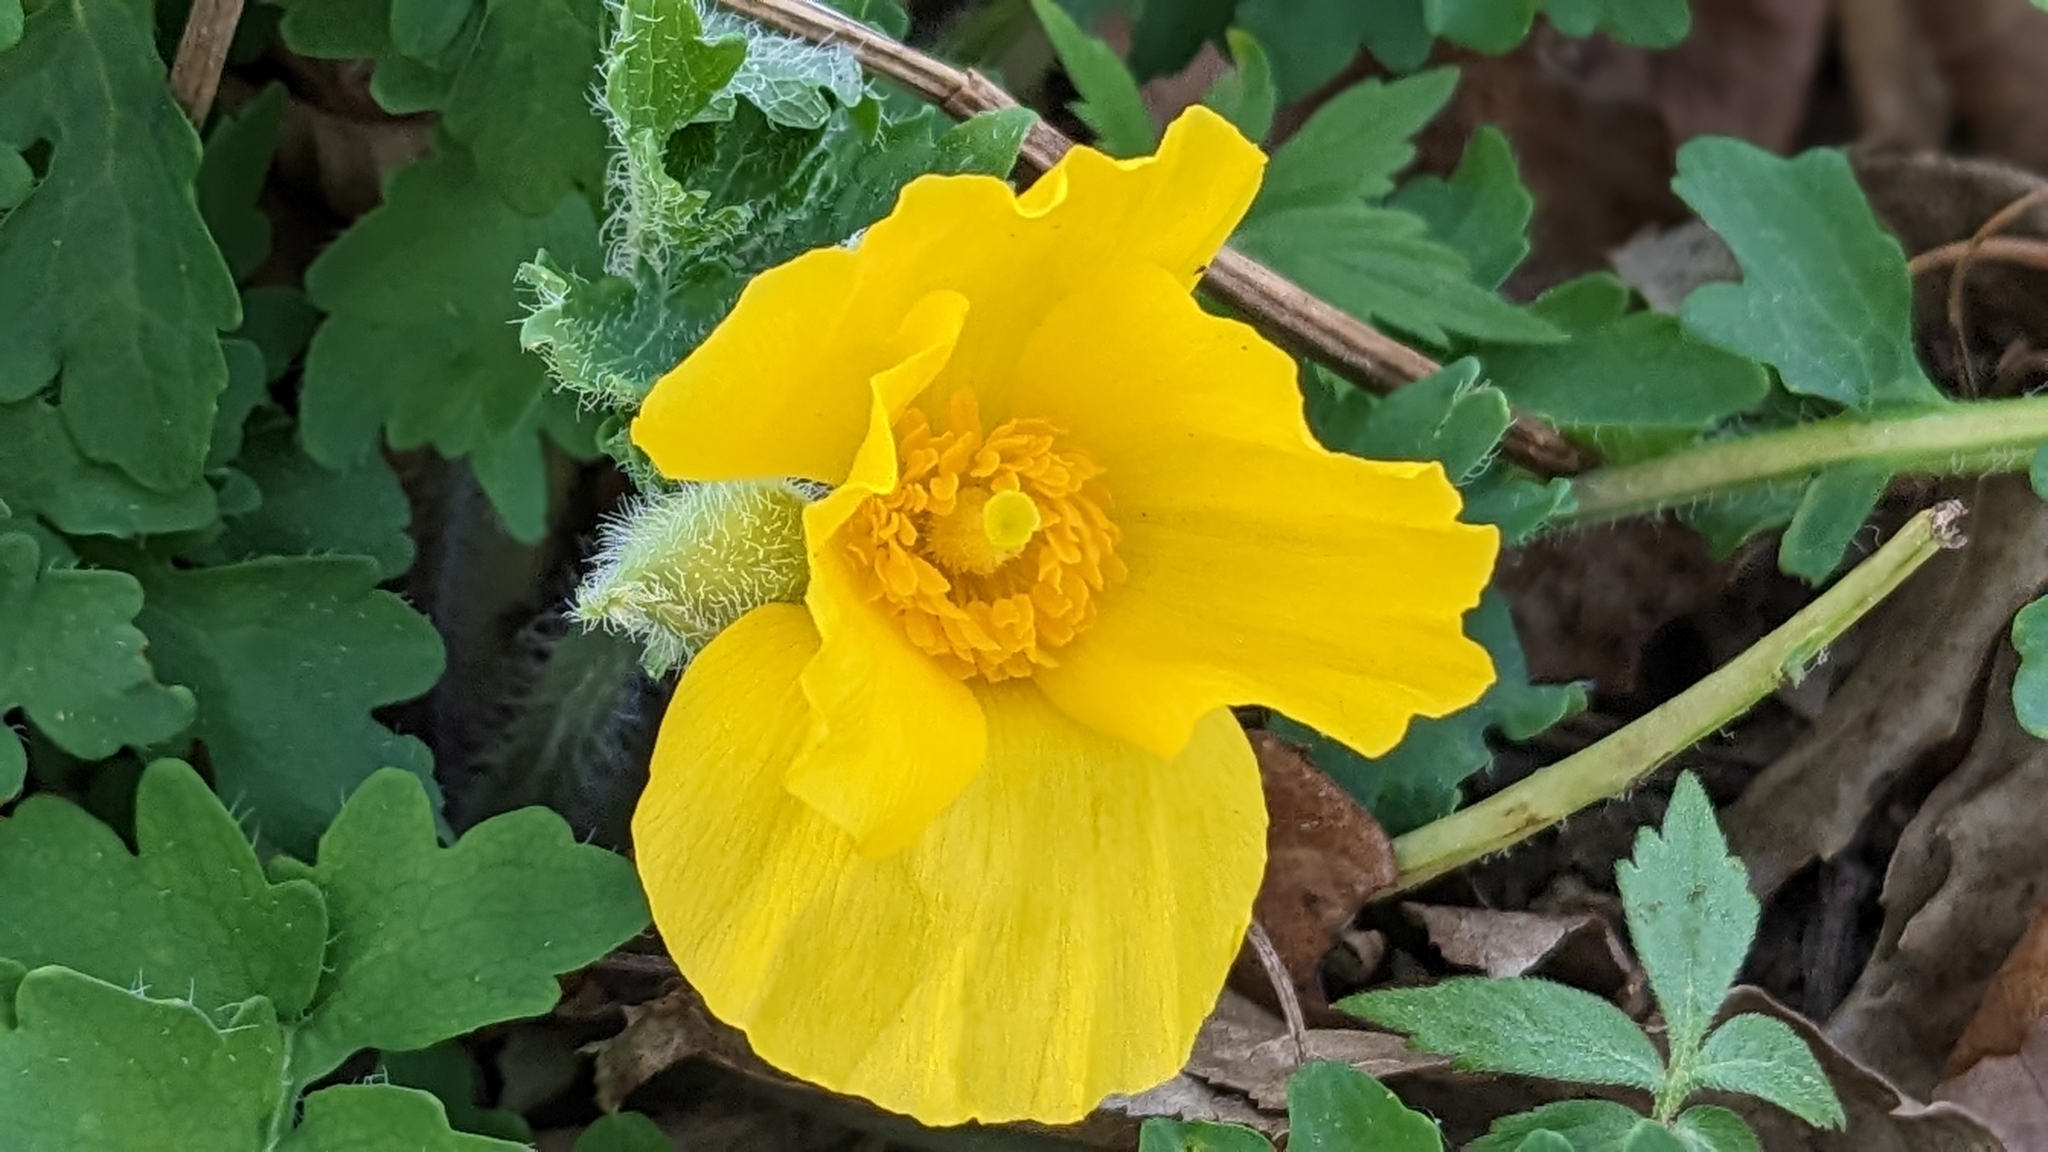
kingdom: Plantae
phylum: Tracheophyta
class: Magnoliopsida
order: Ranunculales
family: Papaveraceae
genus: Stylophorum
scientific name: Stylophorum diphyllum
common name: Celandine poppy
